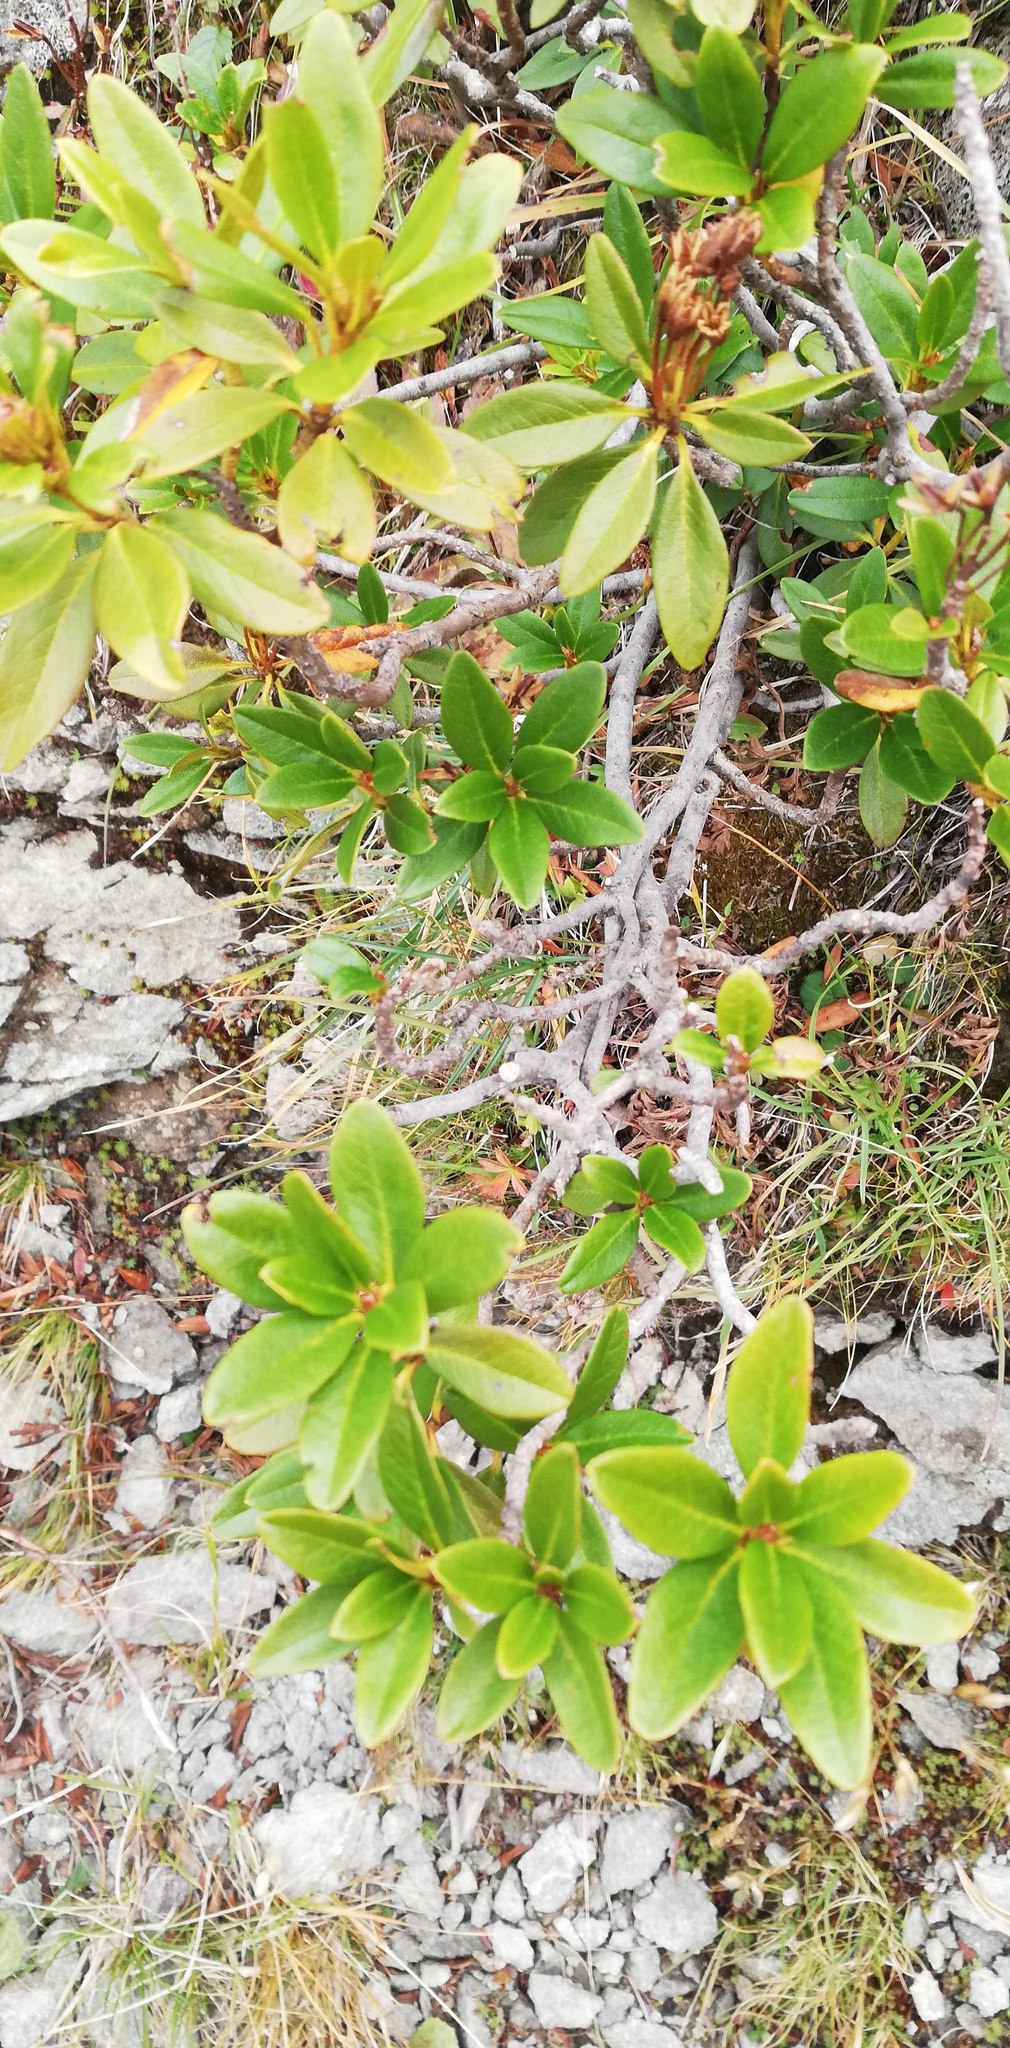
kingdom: Plantae
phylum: Tracheophyta
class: Magnoliopsida
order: Ericales
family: Ericaceae
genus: Rhododendron
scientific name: Rhododendron ferrugineum
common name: Alpenrose
